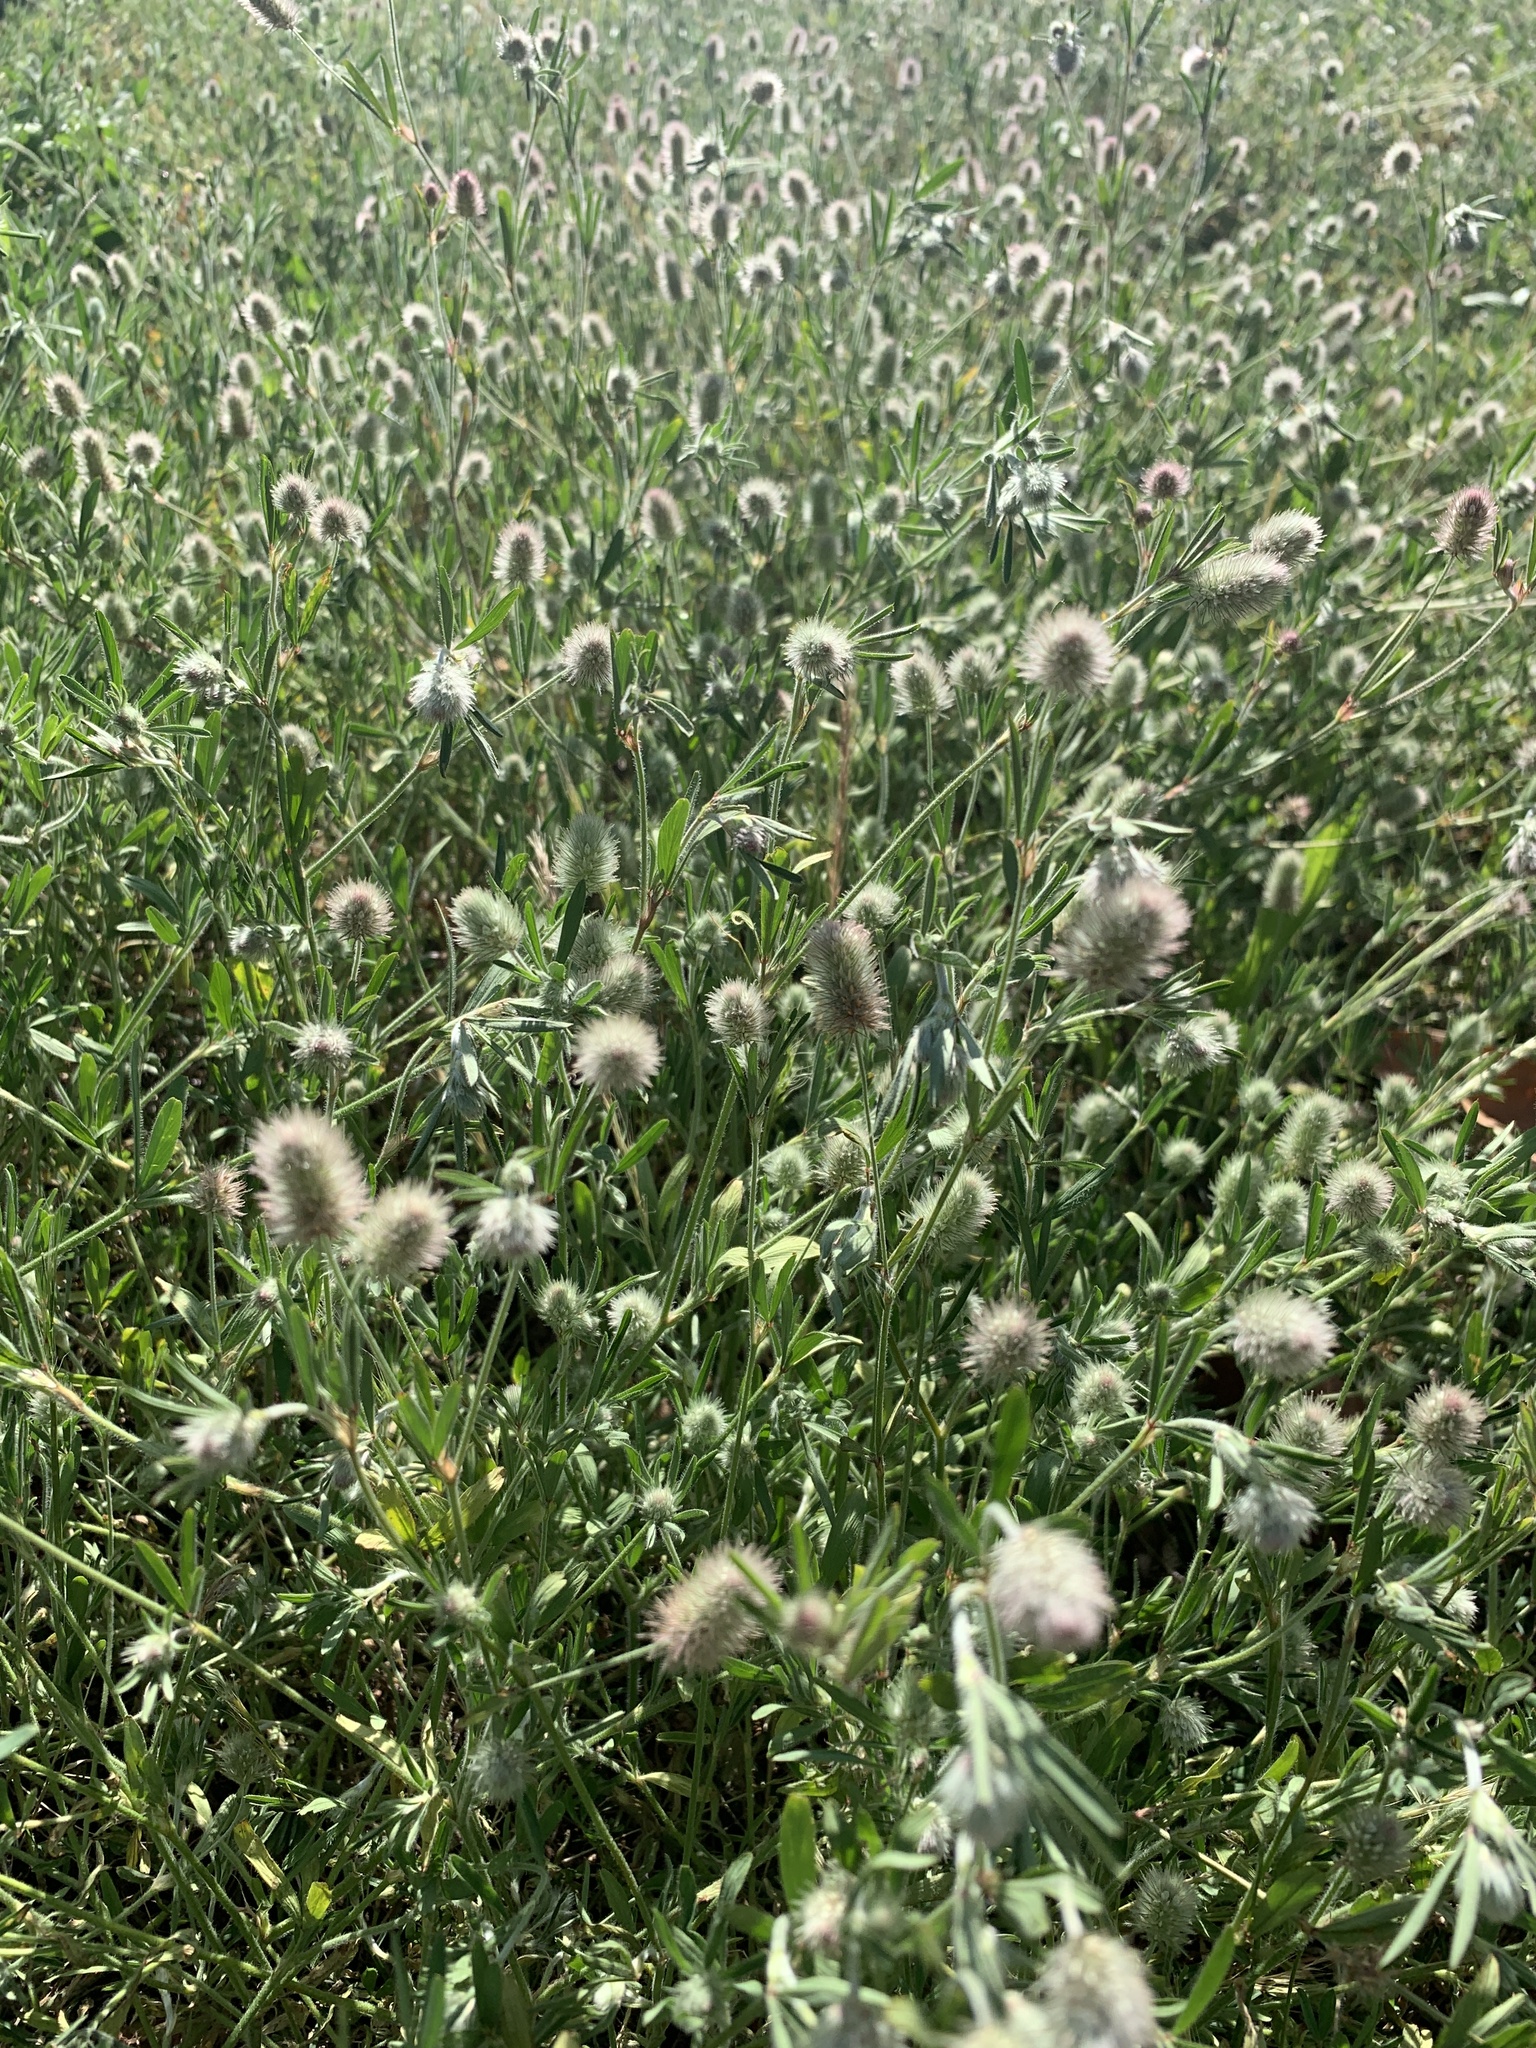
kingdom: Plantae
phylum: Tracheophyta
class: Magnoliopsida
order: Fabales
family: Fabaceae
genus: Trifolium
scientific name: Trifolium arvense
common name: Hare's-foot clover
